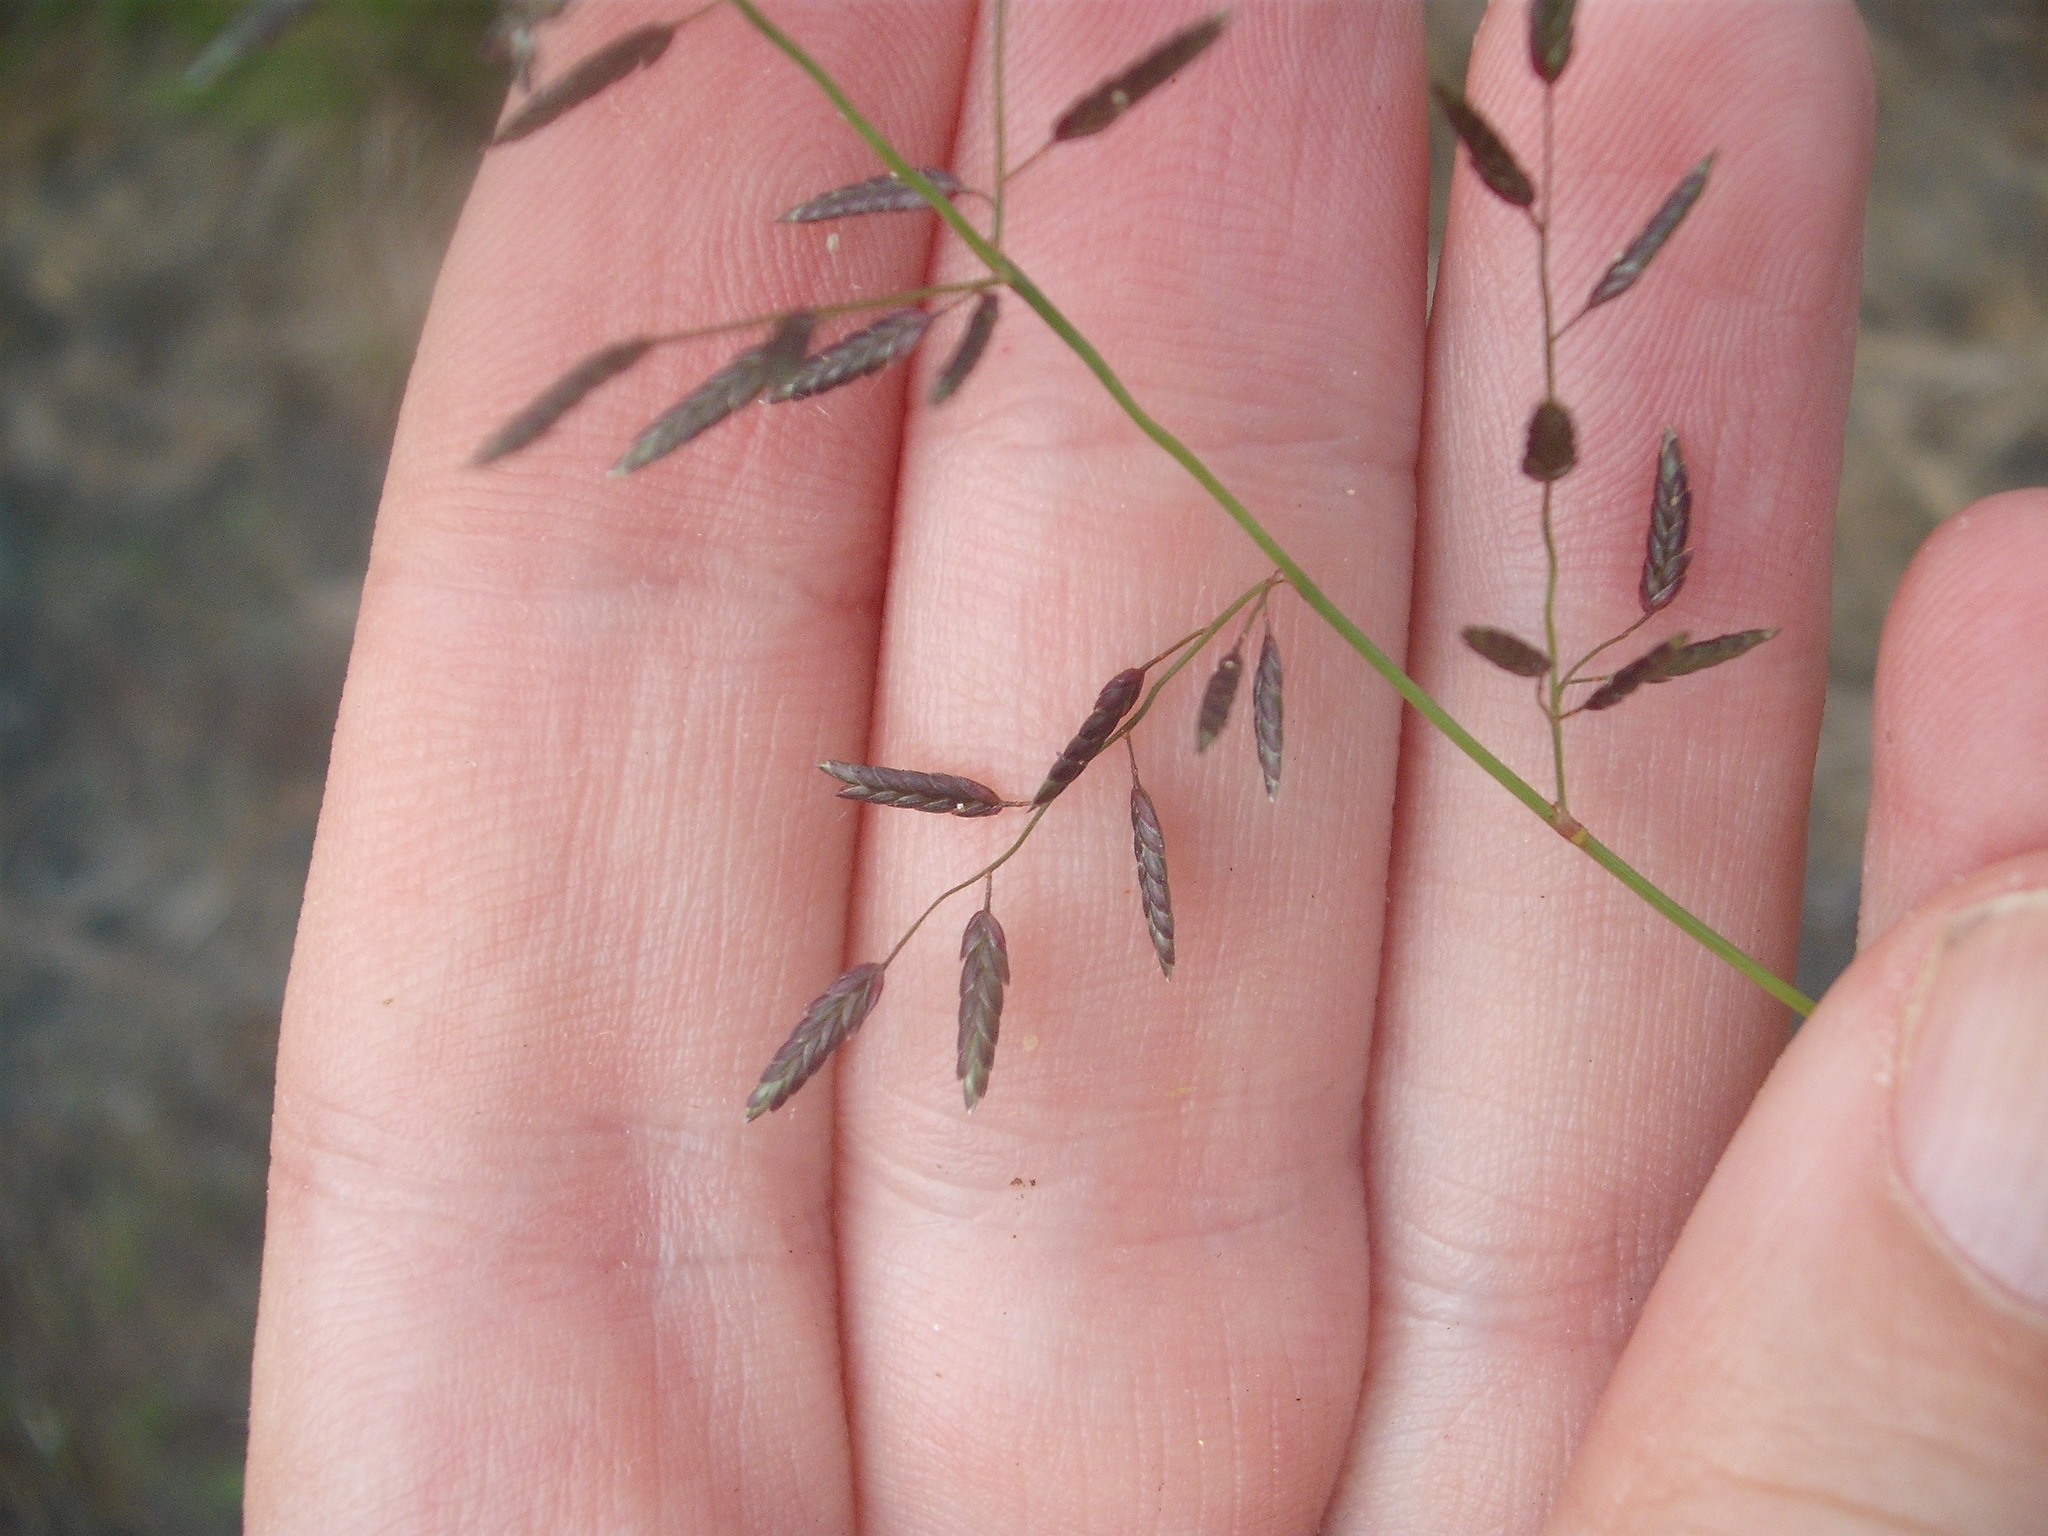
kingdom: Plantae
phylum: Tracheophyta
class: Liliopsida
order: Poales
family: Poaceae
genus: Eragrostis
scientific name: Eragrostis cilianensis
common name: Stinkgrass
